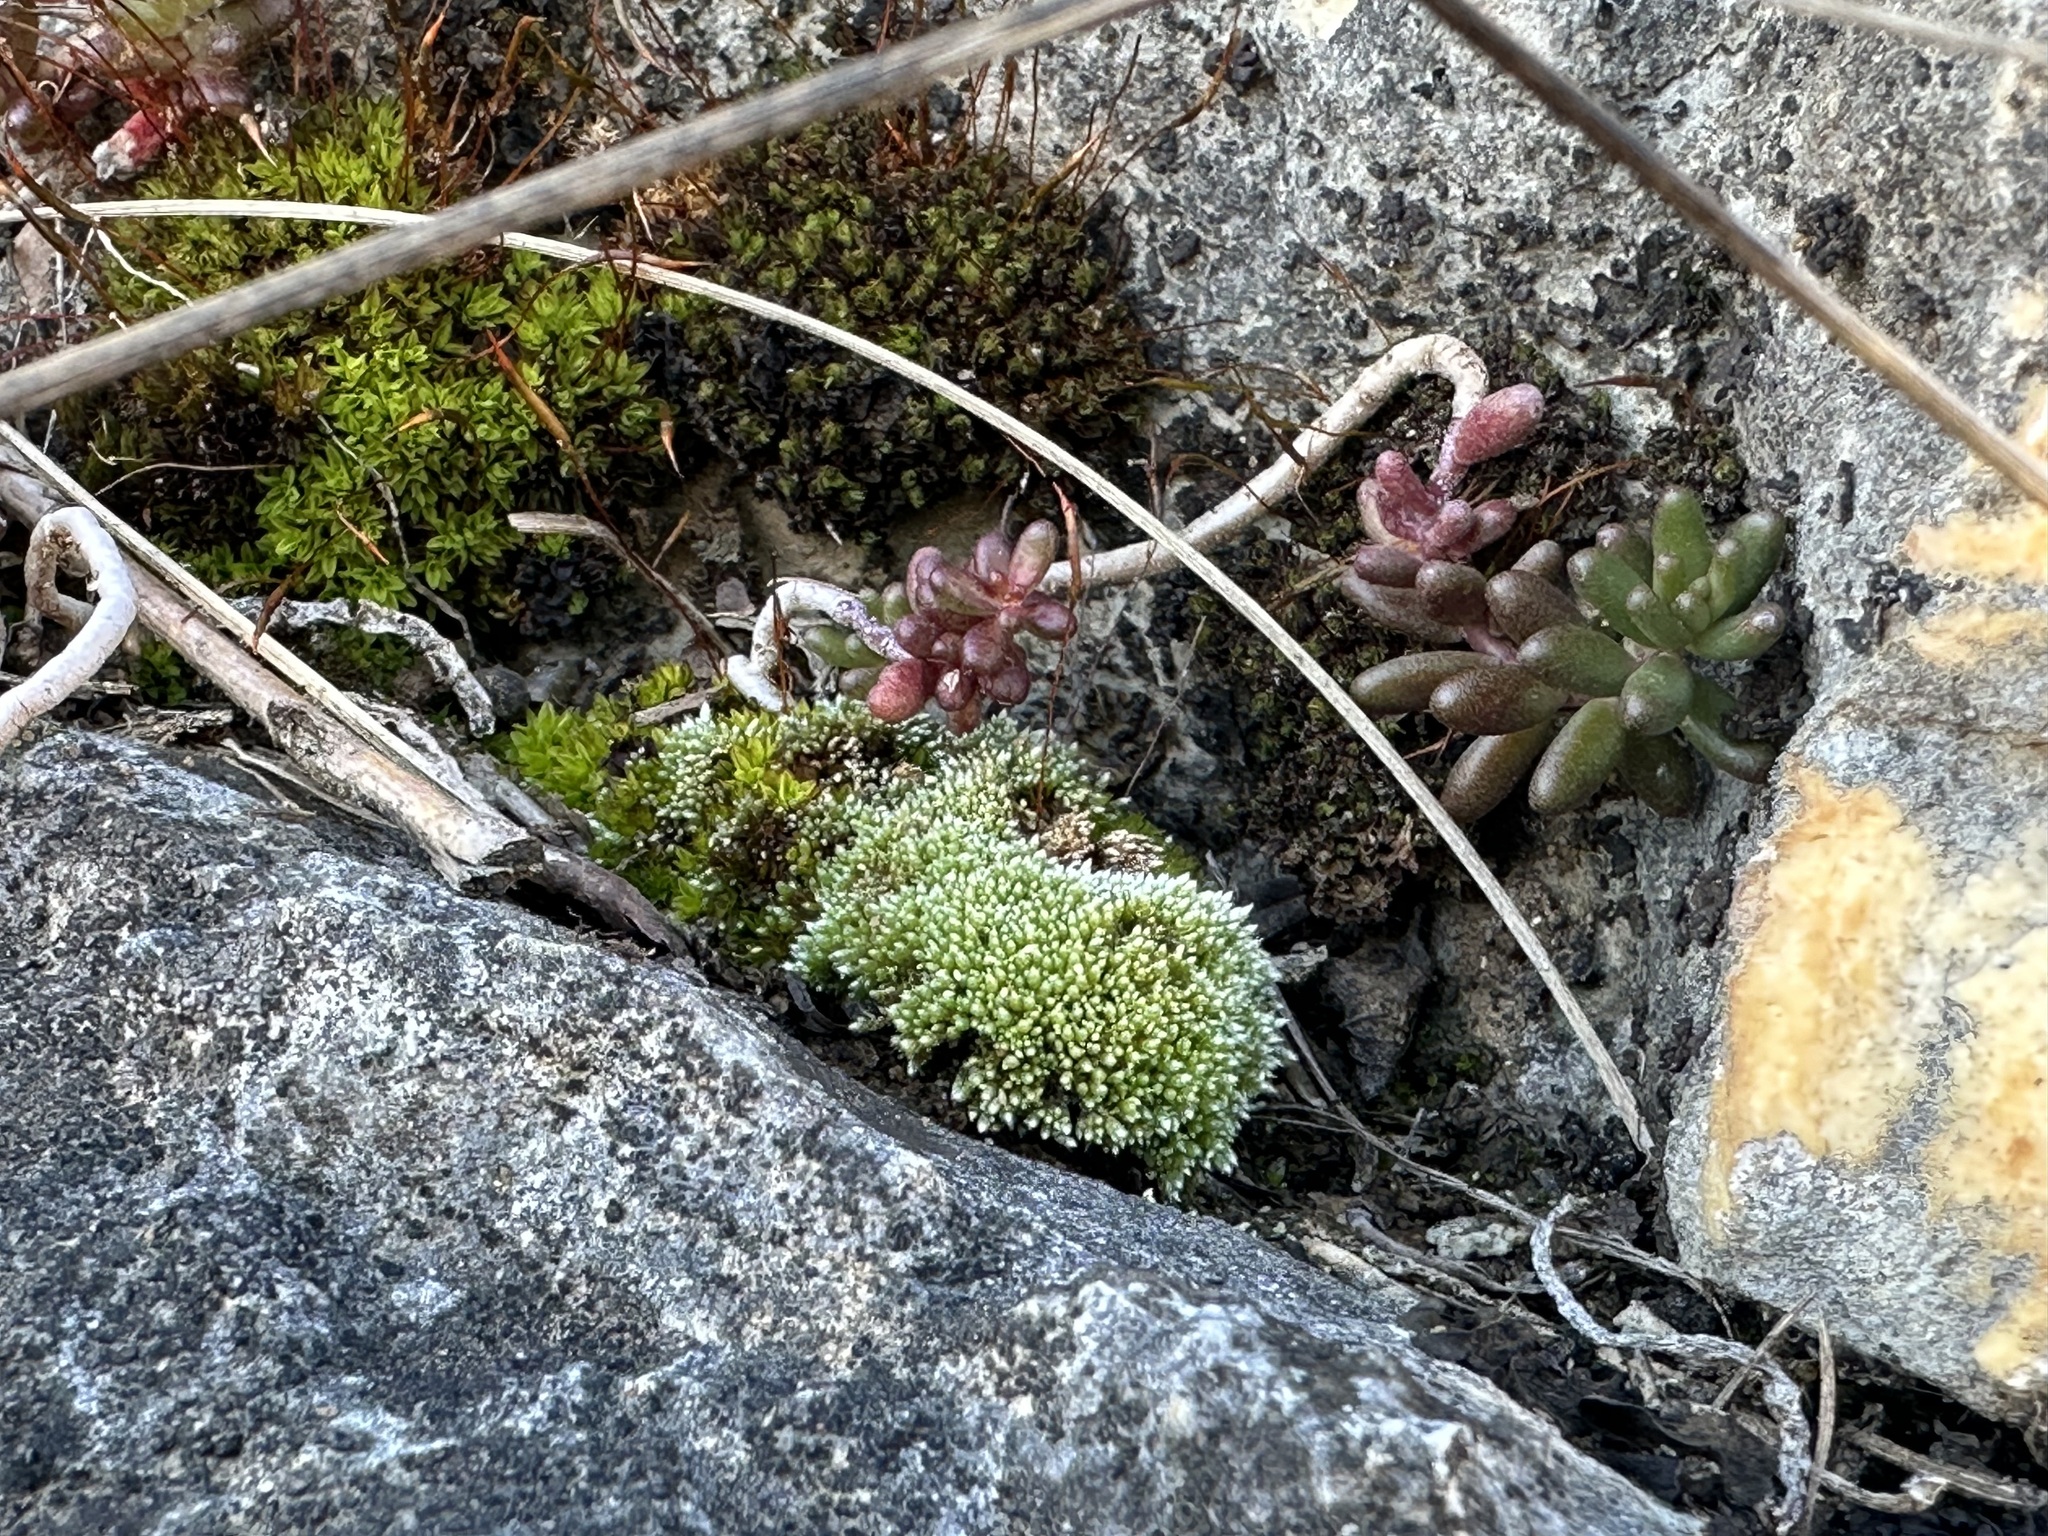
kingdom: Plantae
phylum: Bryophyta
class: Bryopsida
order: Bryales
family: Bryaceae
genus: Bryum
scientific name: Bryum argenteum
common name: Silver-moss
